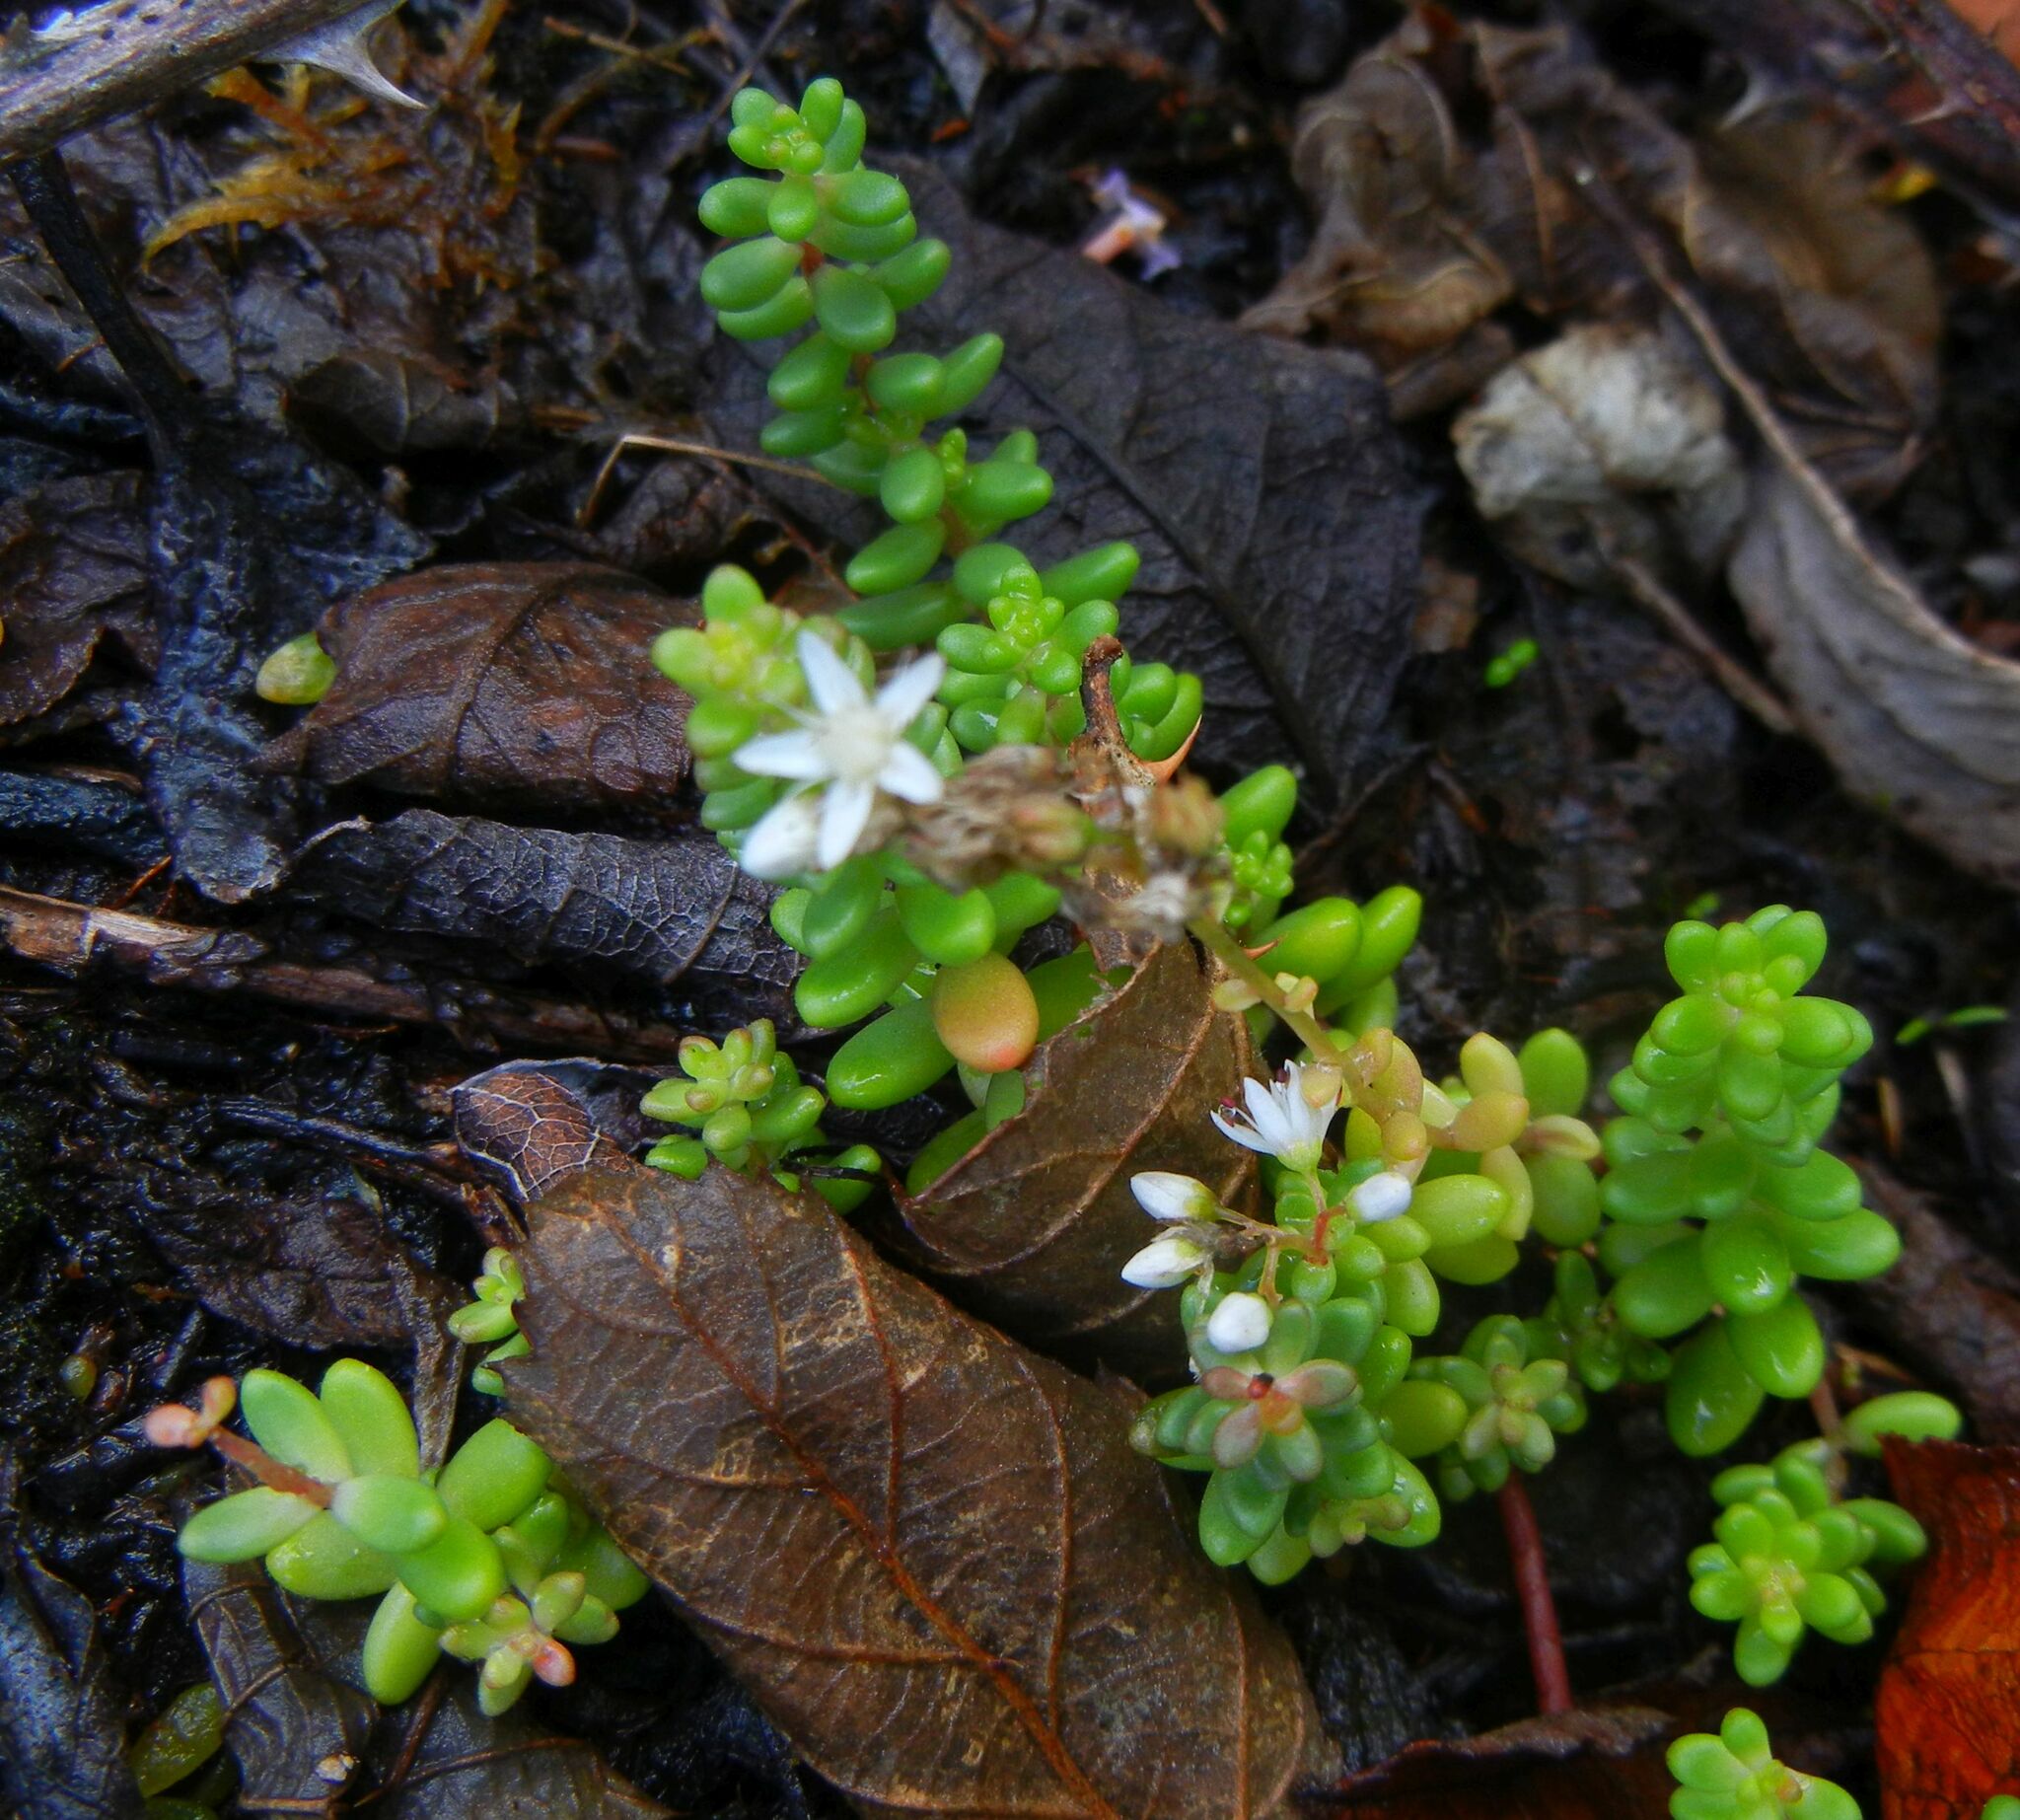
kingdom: Plantae
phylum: Tracheophyta
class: Magnoliopsida
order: Saxifragales
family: Crassulaceae
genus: Sedum
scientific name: Sedum album
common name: White stonecrop
